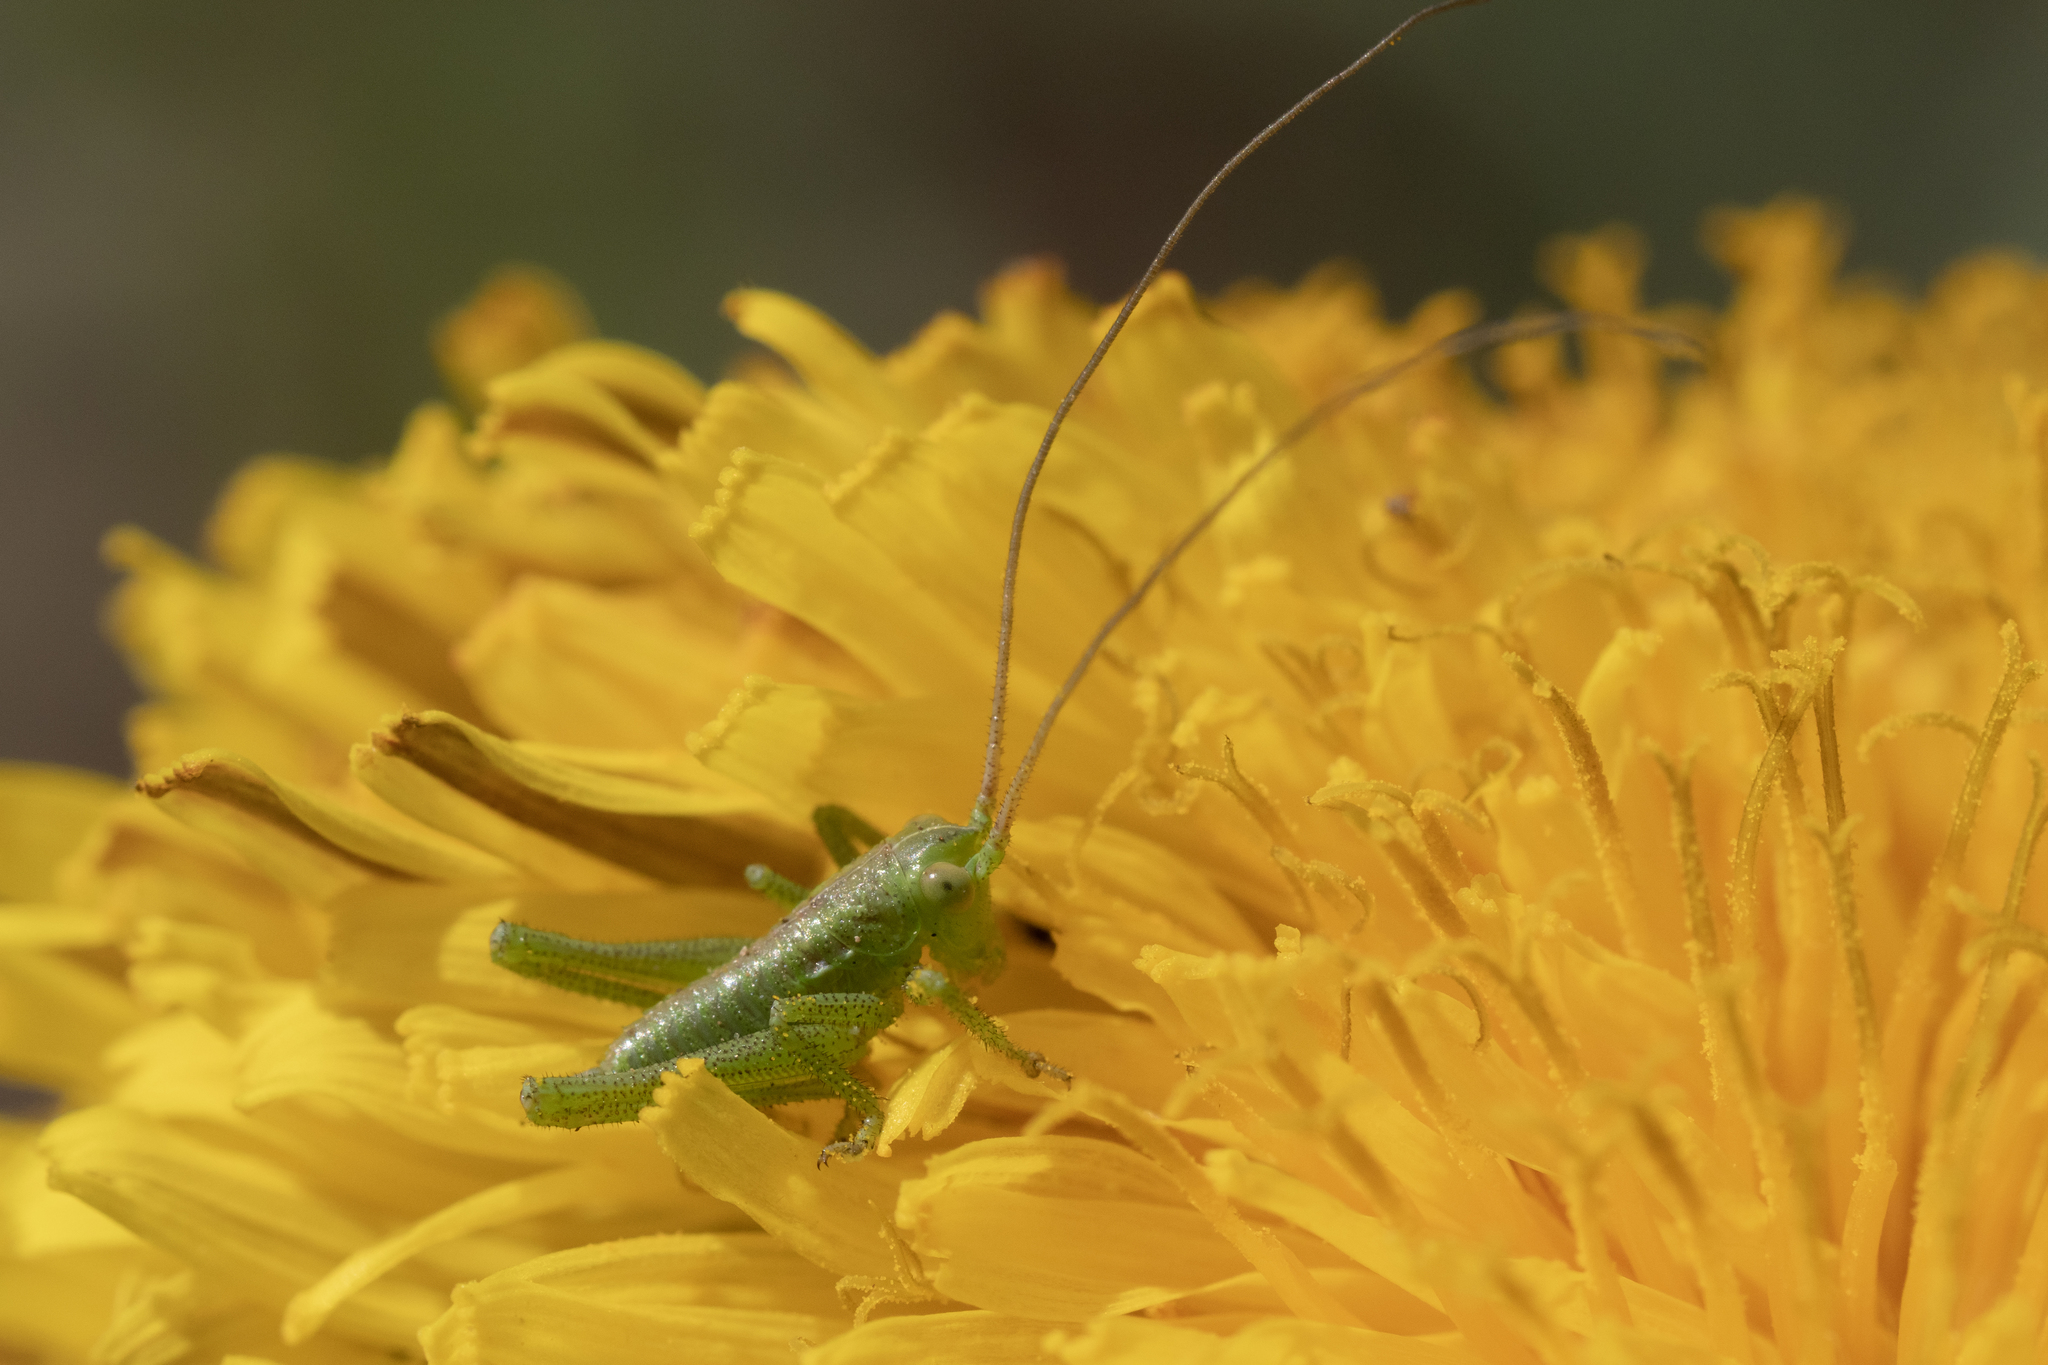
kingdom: Animalia
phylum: Arthropoda
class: Insecta
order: Orthoptera
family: Tettigoniidae
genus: Tettigonia
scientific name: Tettigonia viridissima
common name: Great green bush-cricket
